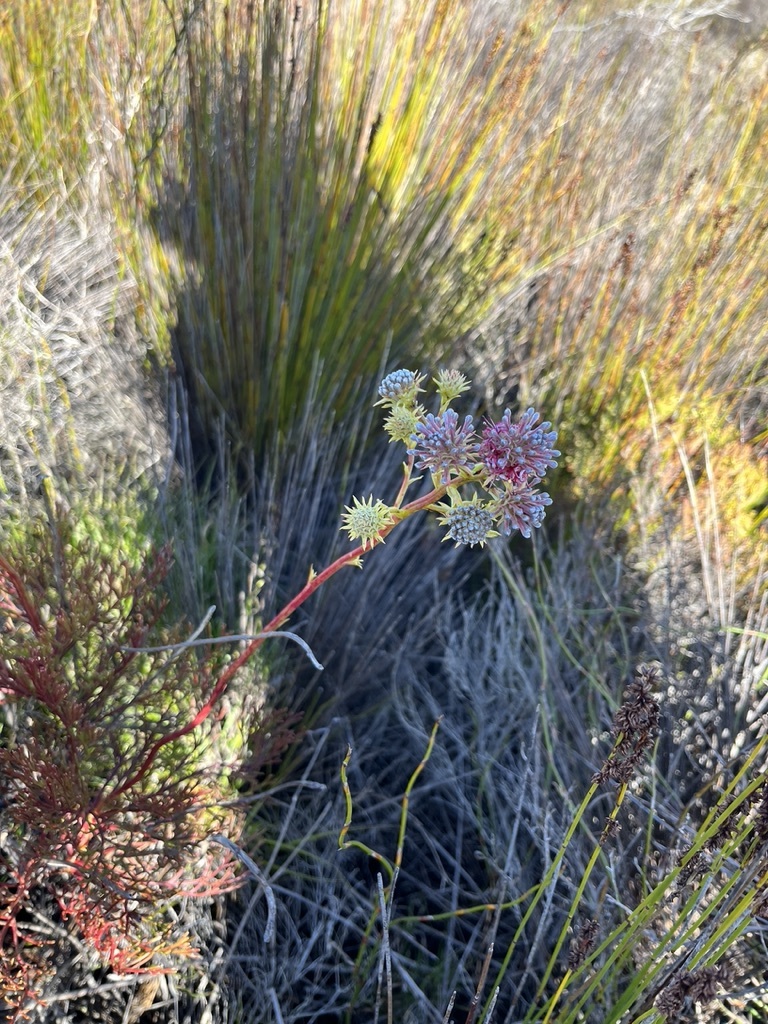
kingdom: Plantae
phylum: Tracheophyta
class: Magnoliopsida
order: Proteales
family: Proteaceae
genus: Serruria
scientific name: Serruria elongata
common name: Long-stalk spiderhead
